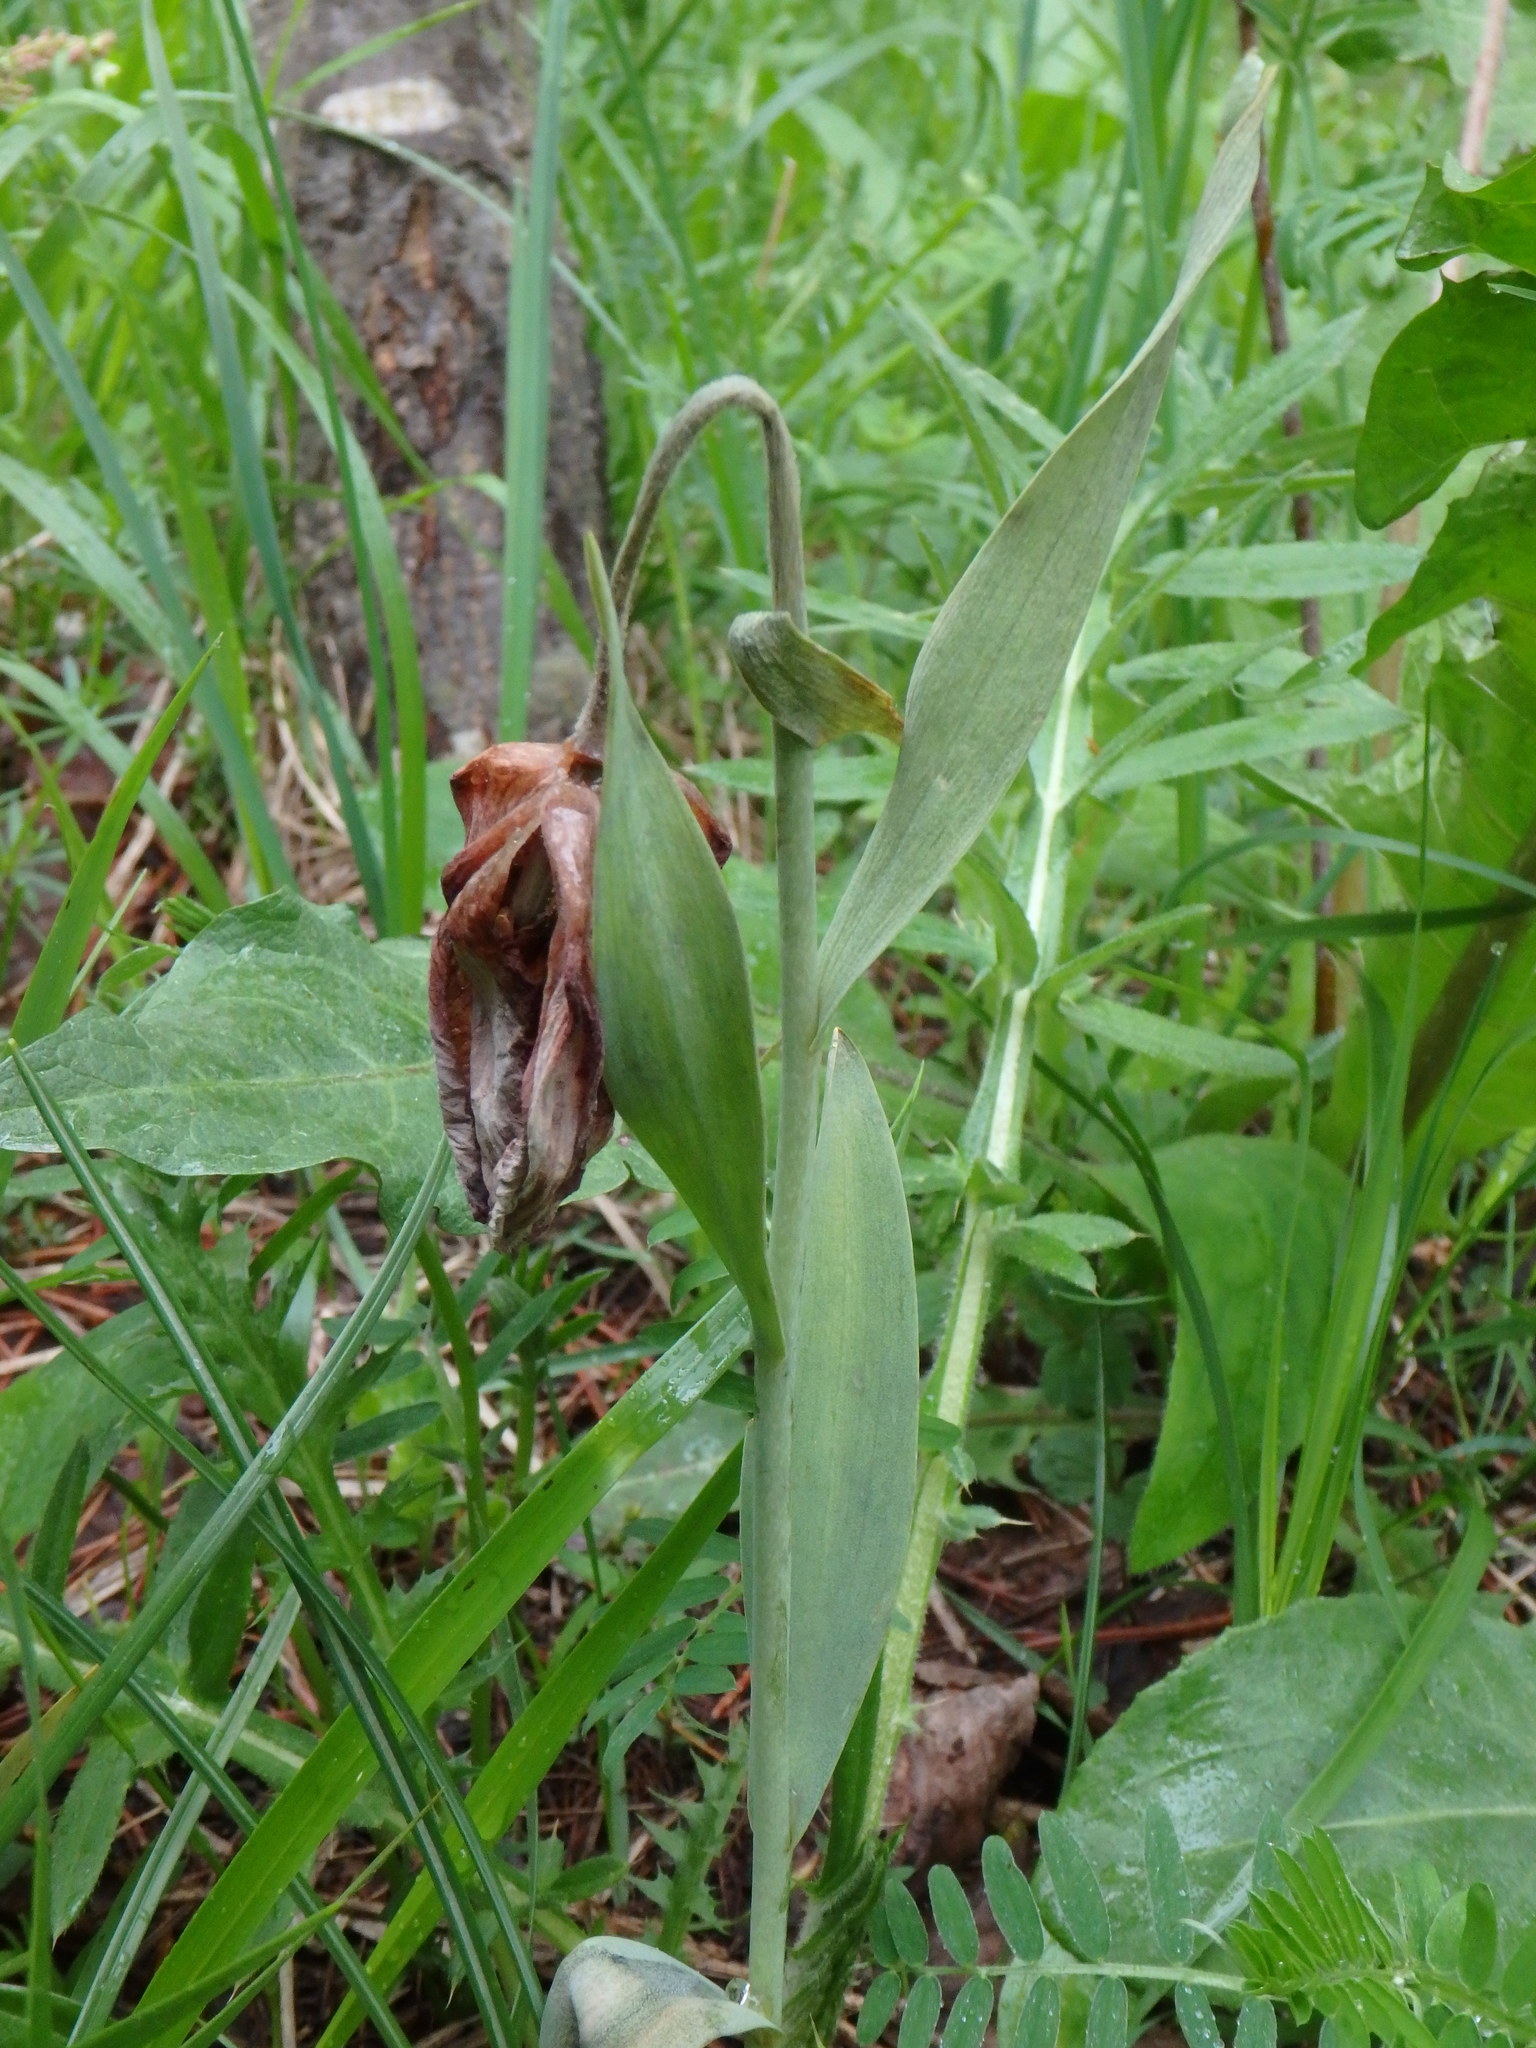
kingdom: Plantae
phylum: Tracheophyta
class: Liliopsida
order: Liliales
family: Liliaceae
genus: Fritillaria
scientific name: Fritillaria tubaeformis
